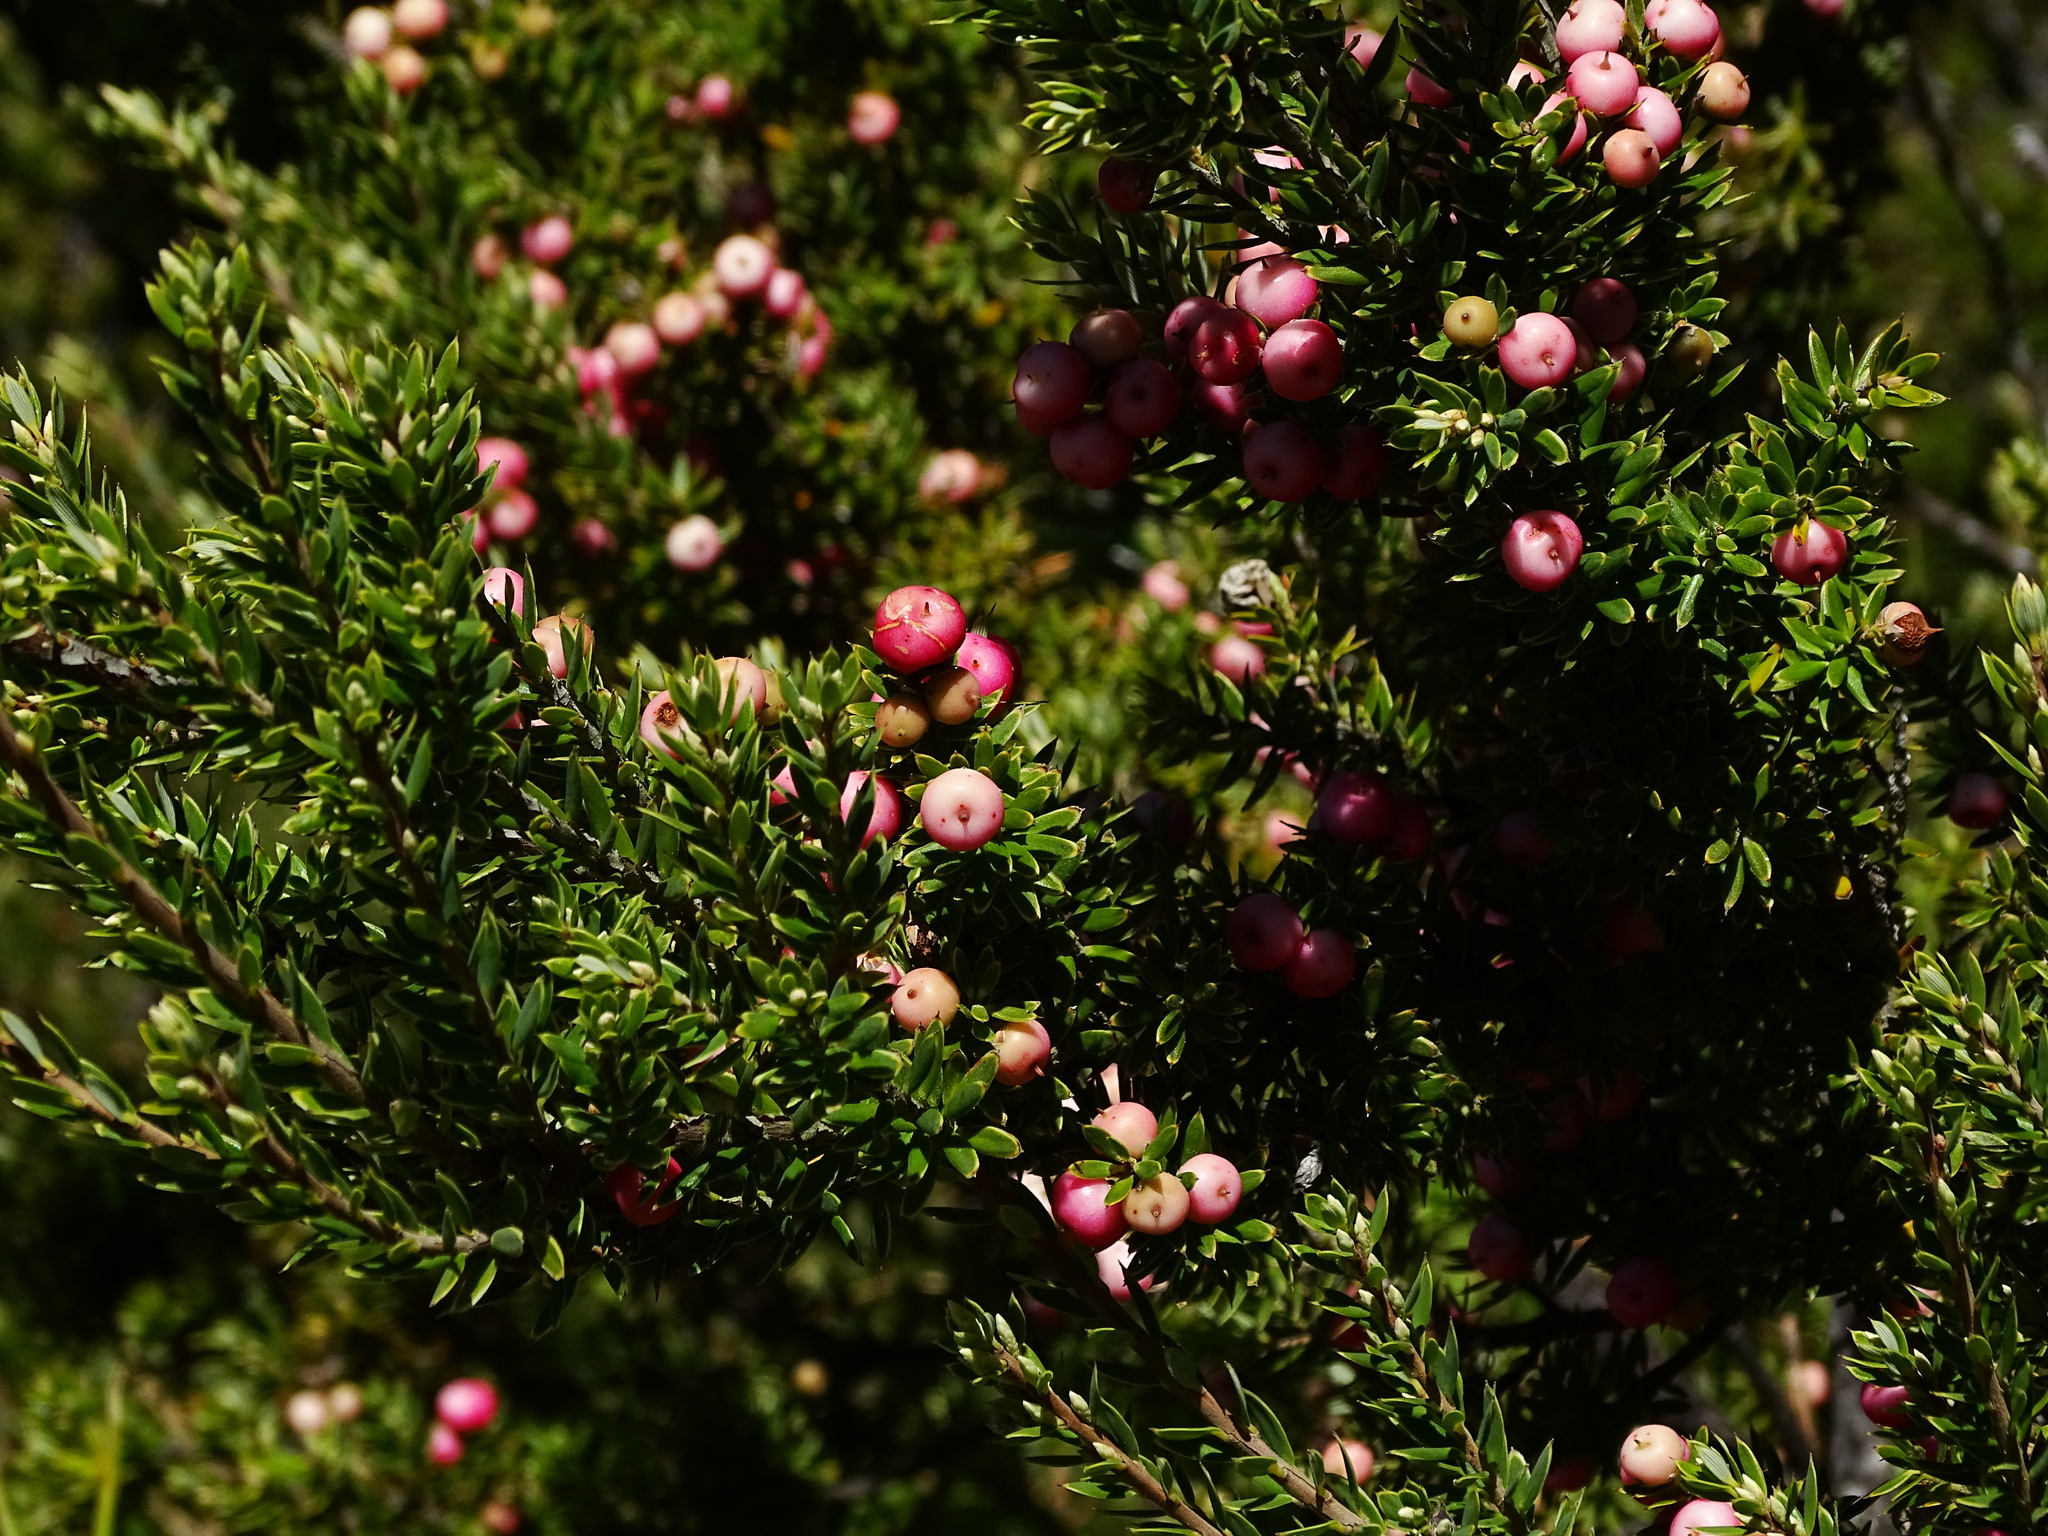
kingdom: Plantae
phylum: Tracheophyta
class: Magnoliopsida
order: Ericales
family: Ericaceae
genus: Leptecophylla
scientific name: Leptecophylla tameiameiae
